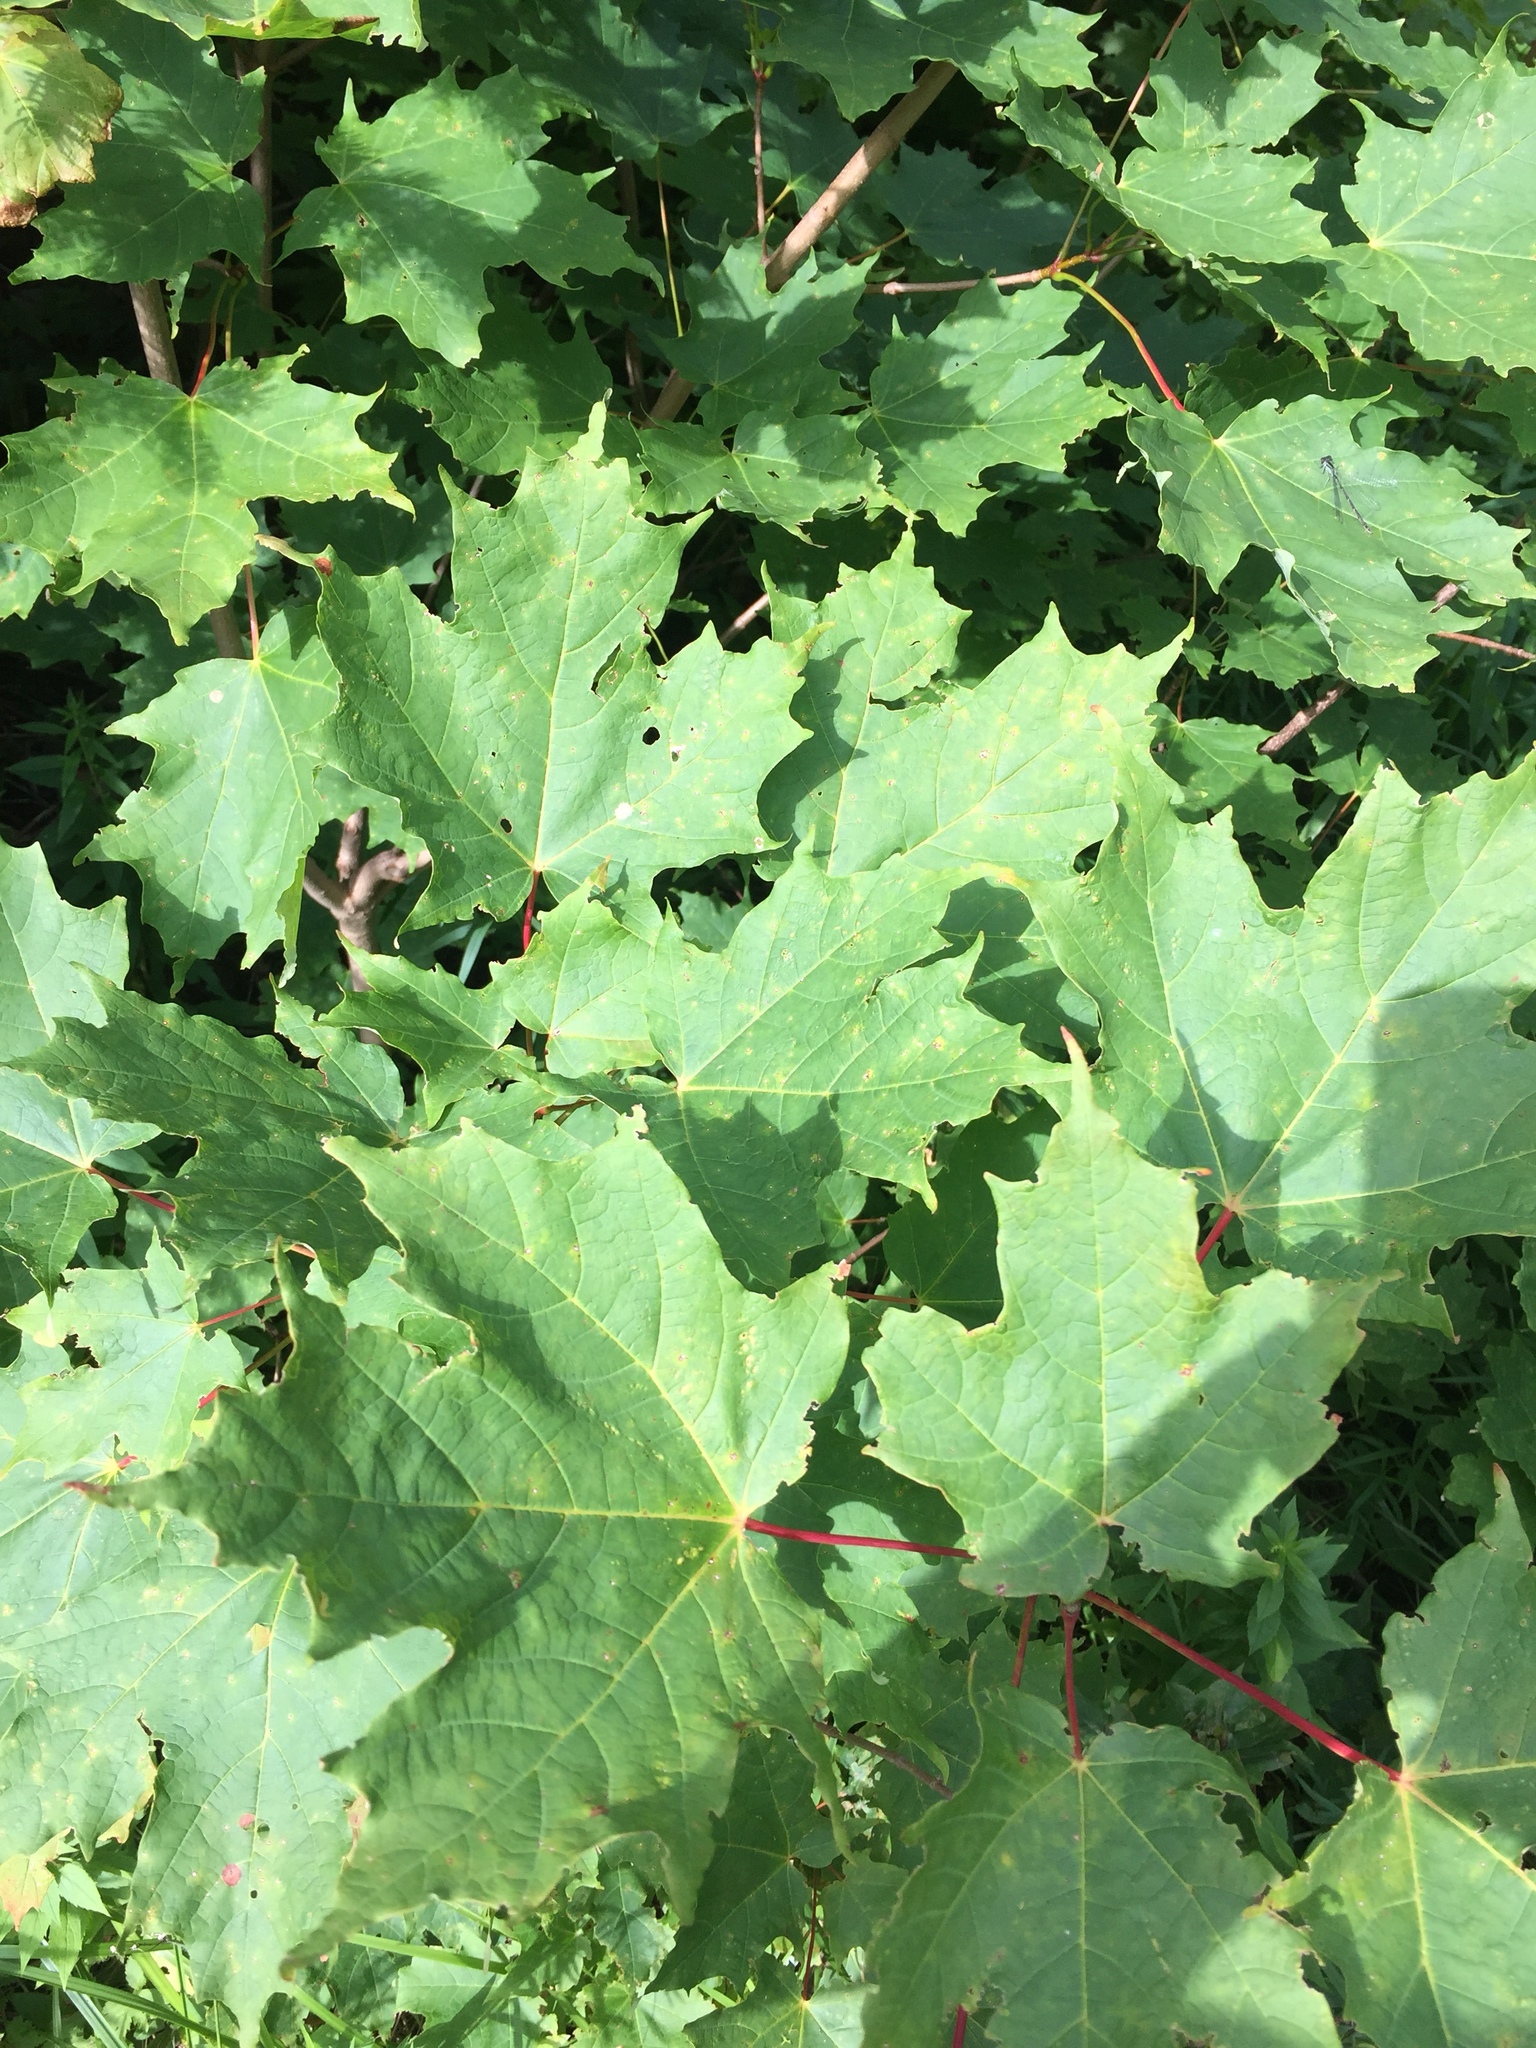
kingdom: Plantae
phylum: Tracheophyta
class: Magnoliopsida
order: Sapindales
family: Sapindaceae
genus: Acer
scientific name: Acer saccharum
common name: Sugar maple
